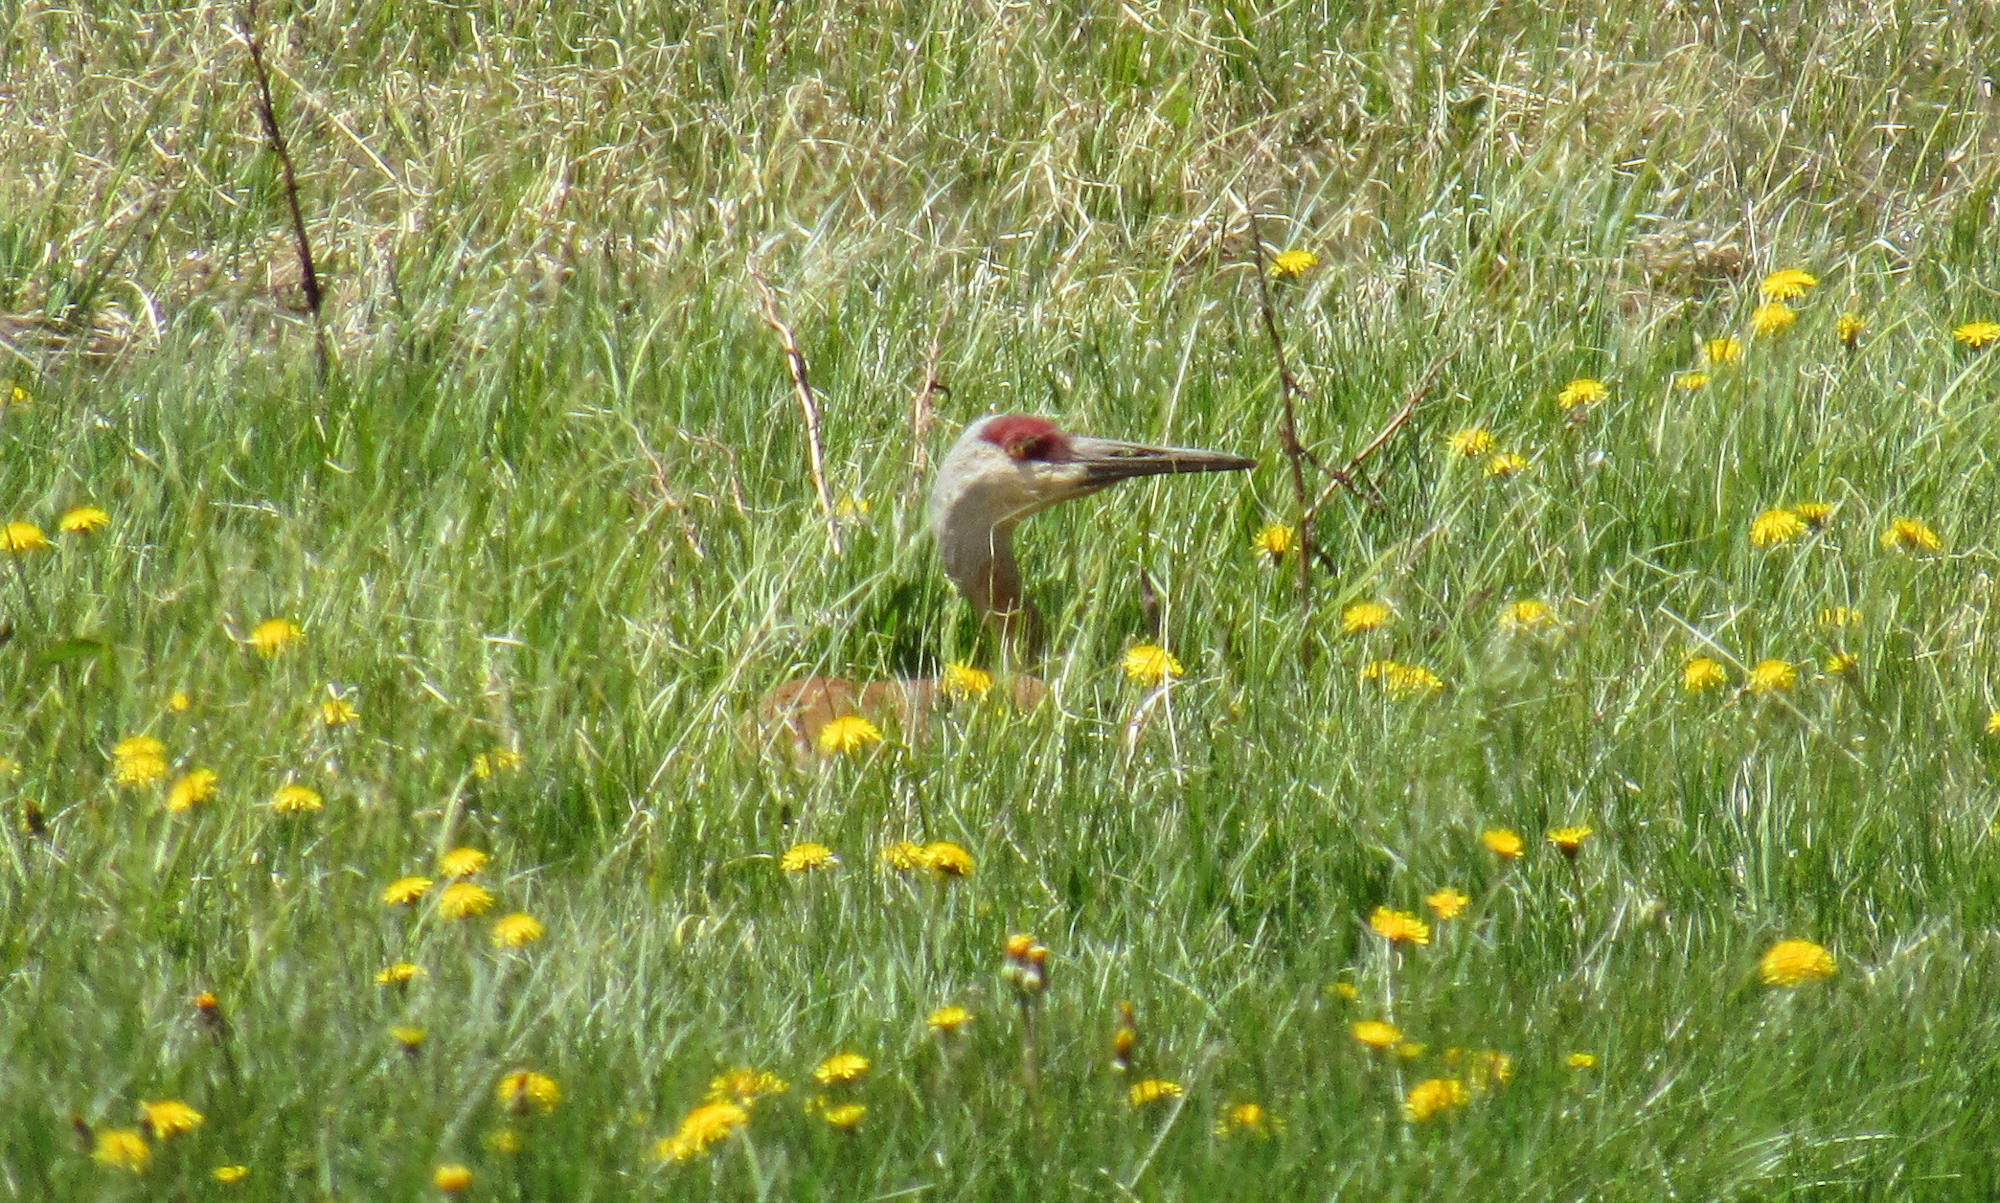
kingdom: Animalia
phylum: Chordata
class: Aves
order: Gruiformes
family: Gruidae
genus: Grus
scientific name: Grus canadensis
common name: Sandhill crane
